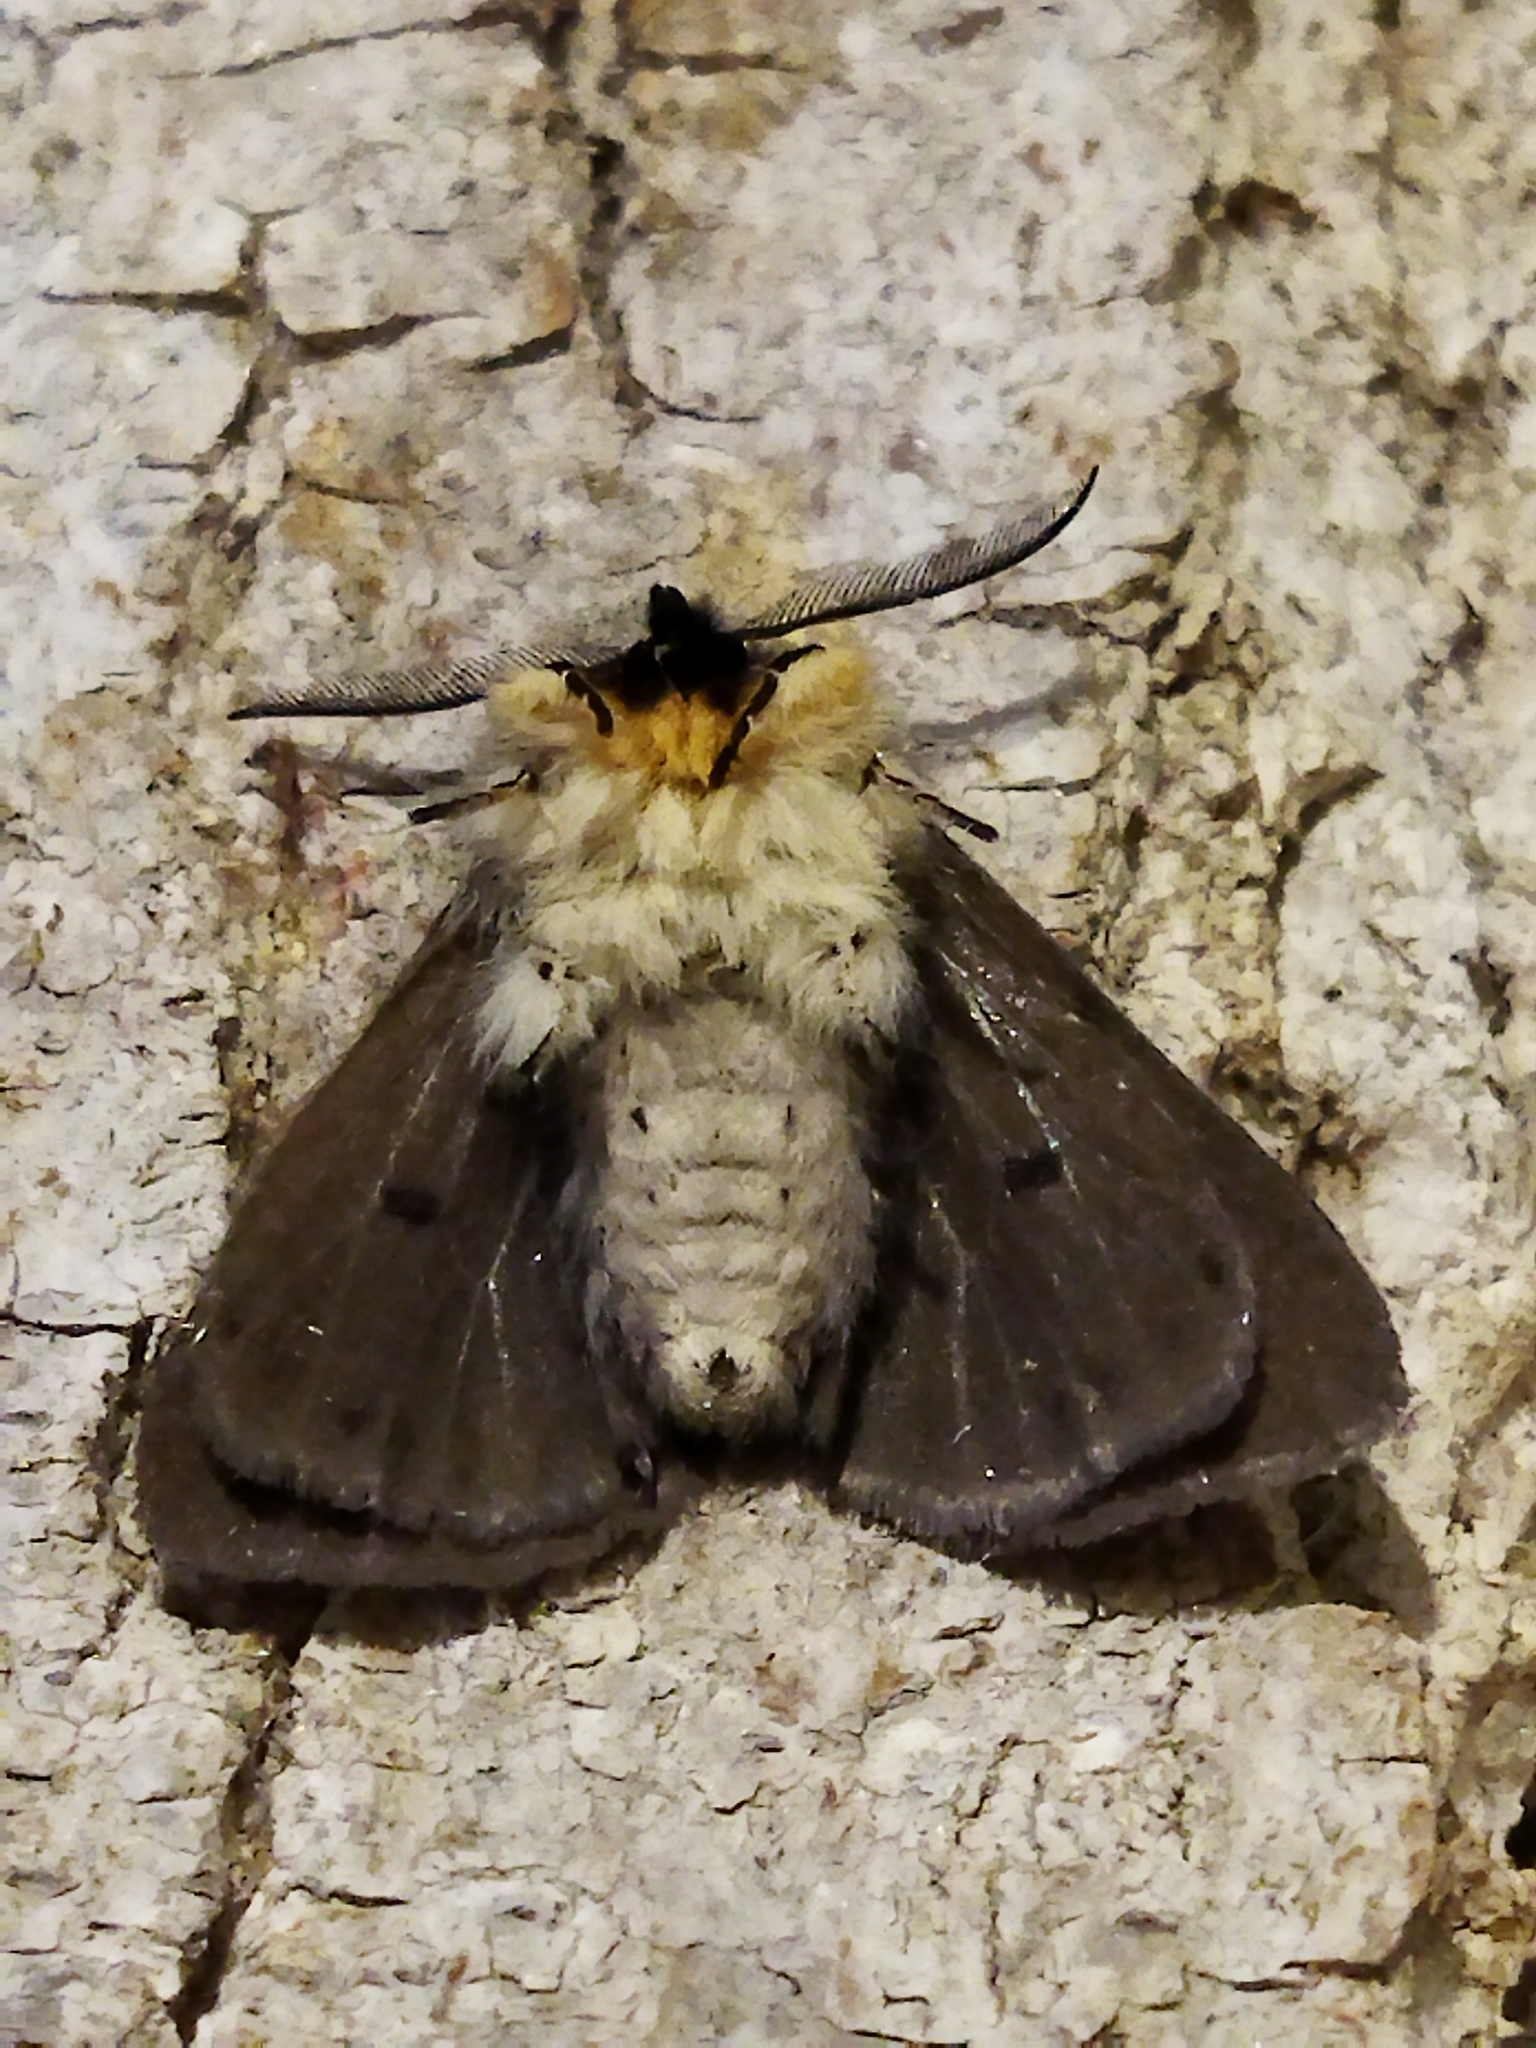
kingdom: Animalia
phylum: Arthropoda
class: Insecta
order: Lepidoptera
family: Erebidae
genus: Diaphora
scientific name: Diaphora mendica
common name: Muslin moth
